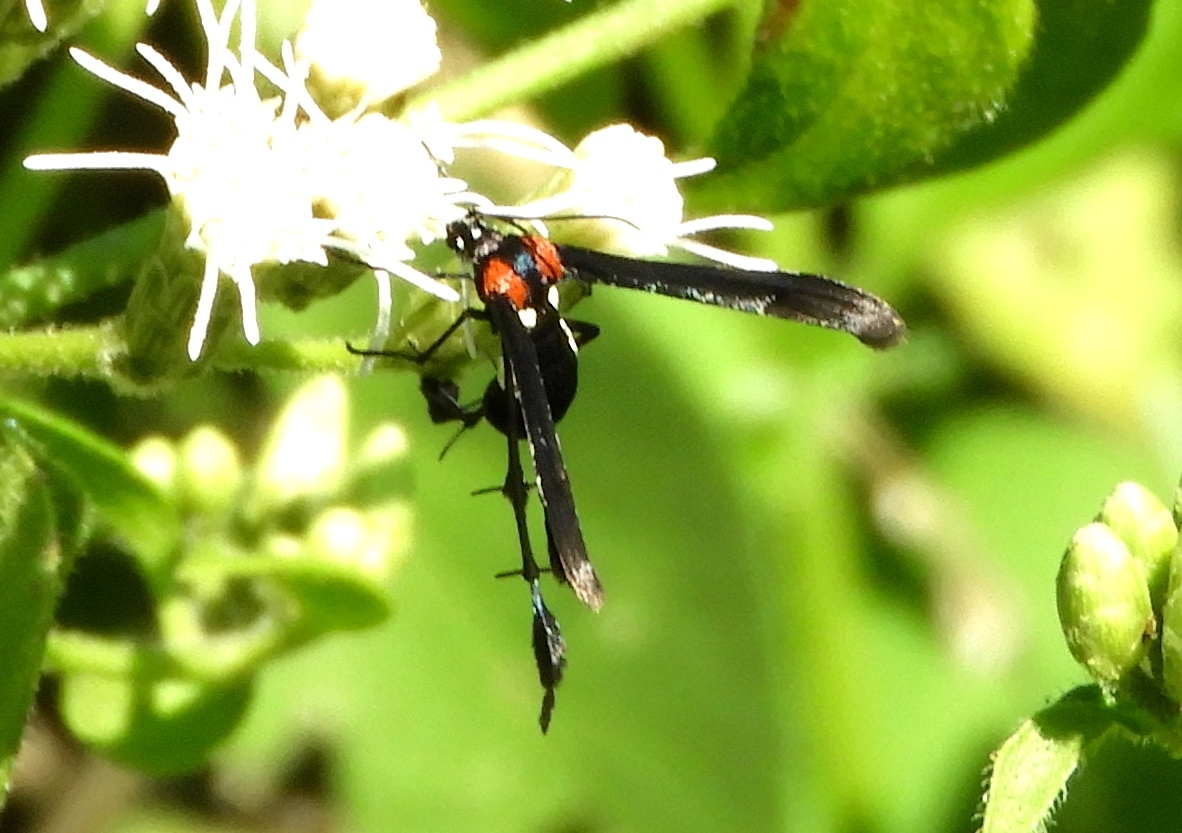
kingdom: Animalia
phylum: Arthropoda
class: Insecta
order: Lepidoptera
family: Pterophoridae
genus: Hellinsia
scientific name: Hellinsia chamelai
